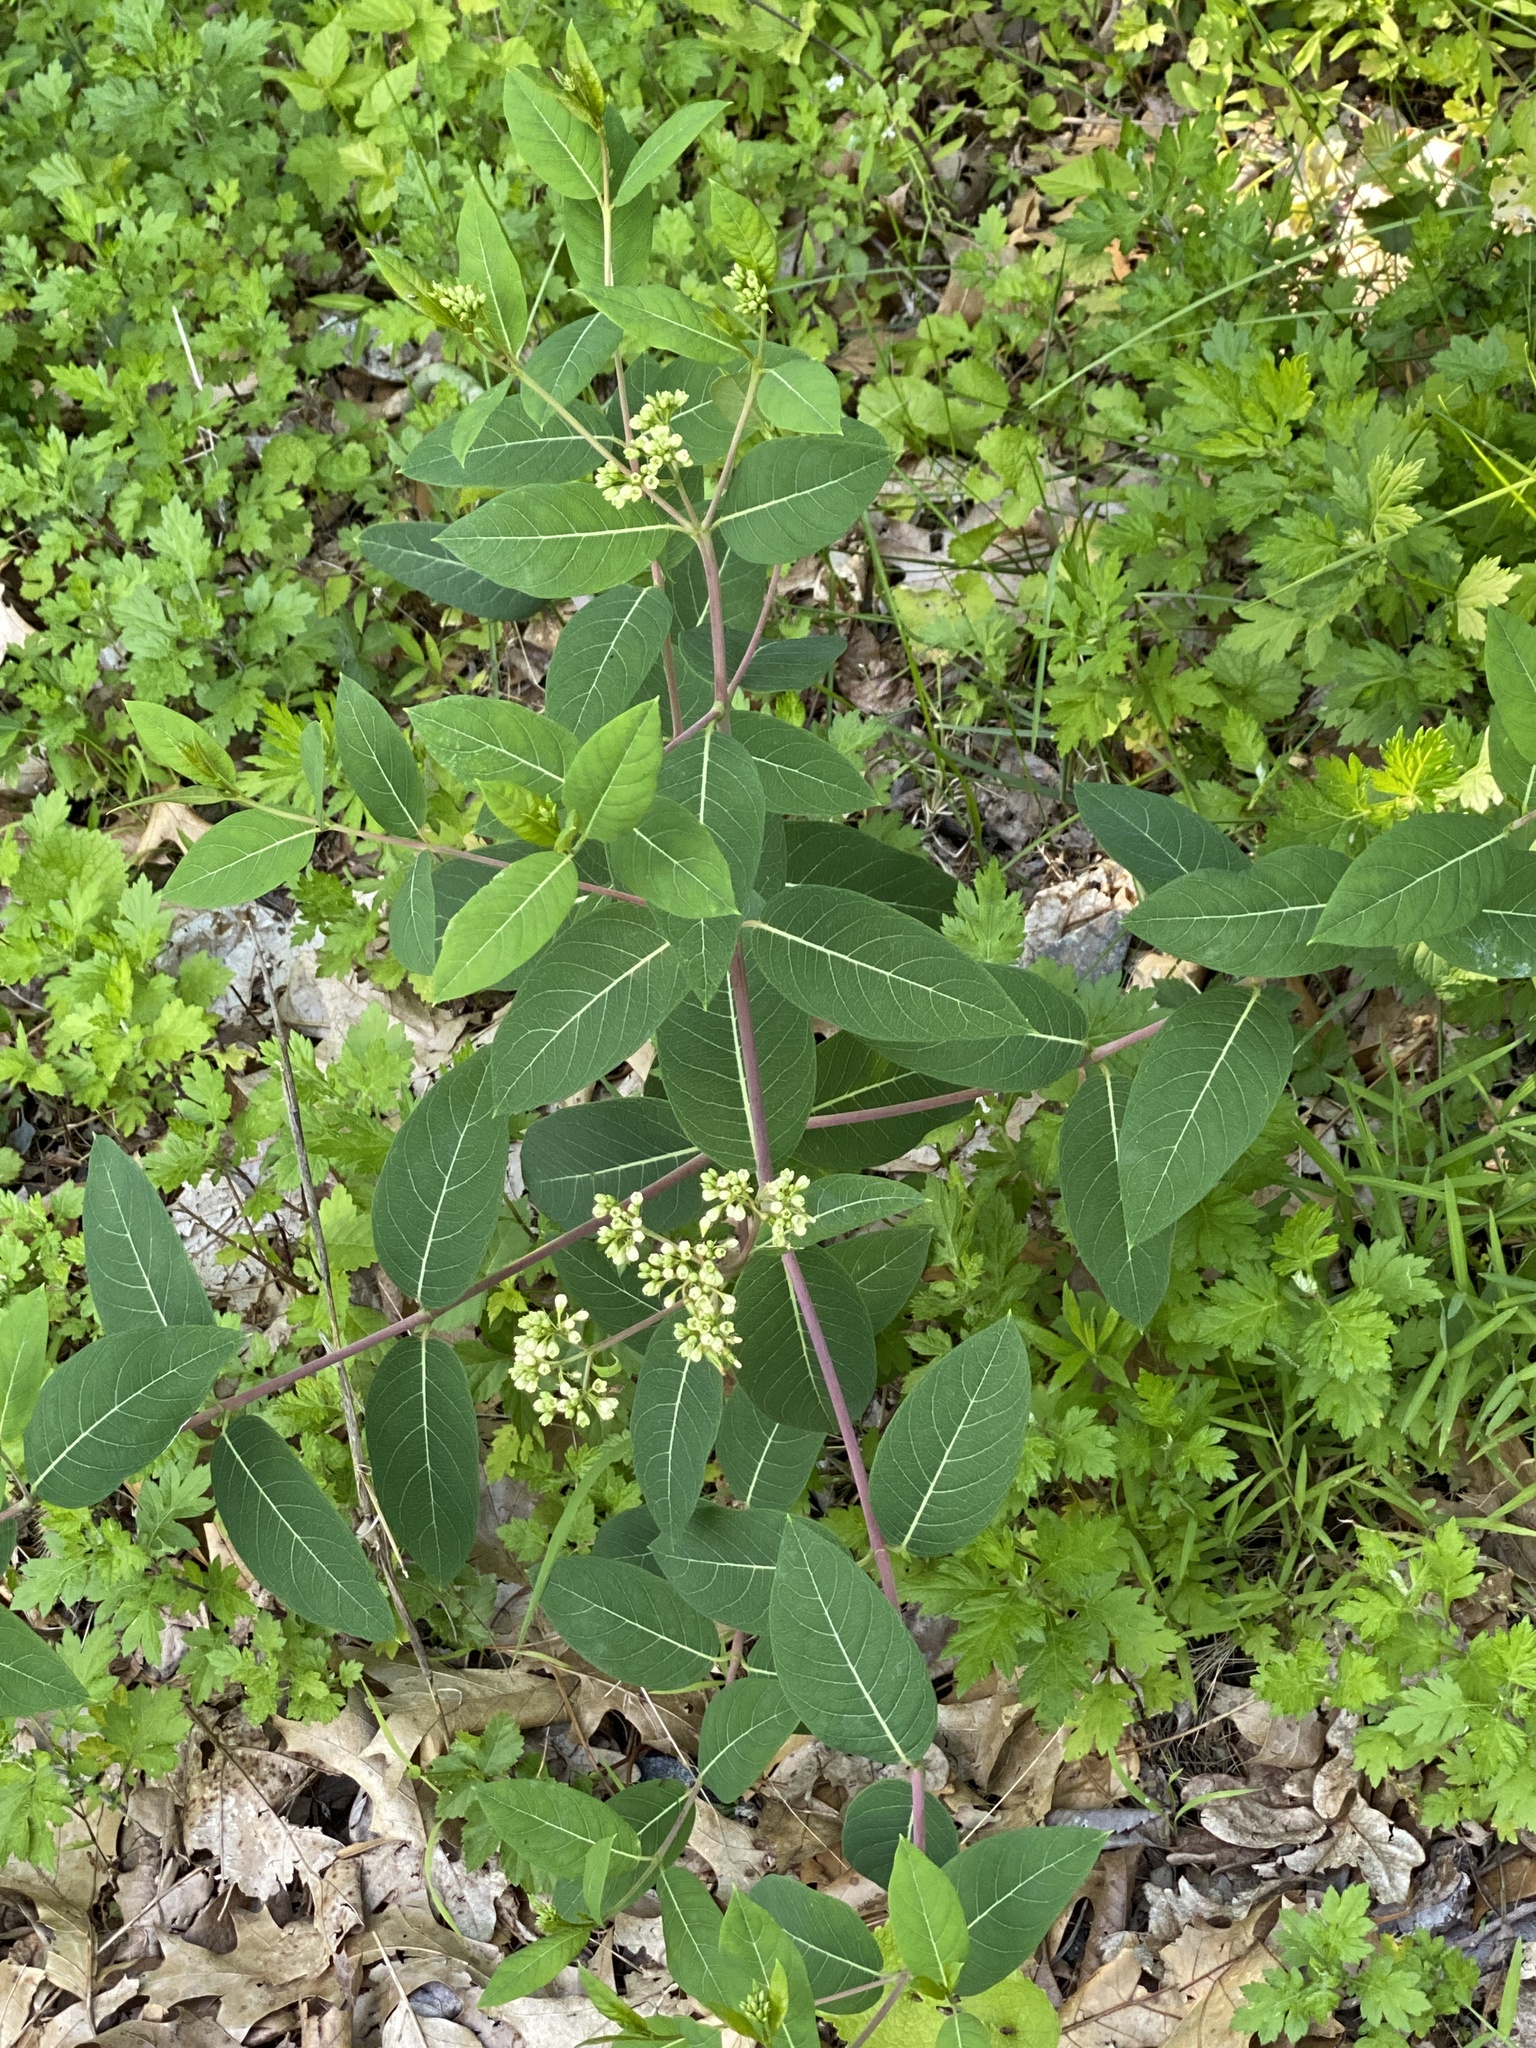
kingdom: Plantae
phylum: Tracheophyta
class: Magnoliopsida
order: Gentianales
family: Apocynaceae
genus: Apocynum
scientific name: Apocynum cannabinum
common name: Hemp dogbane
